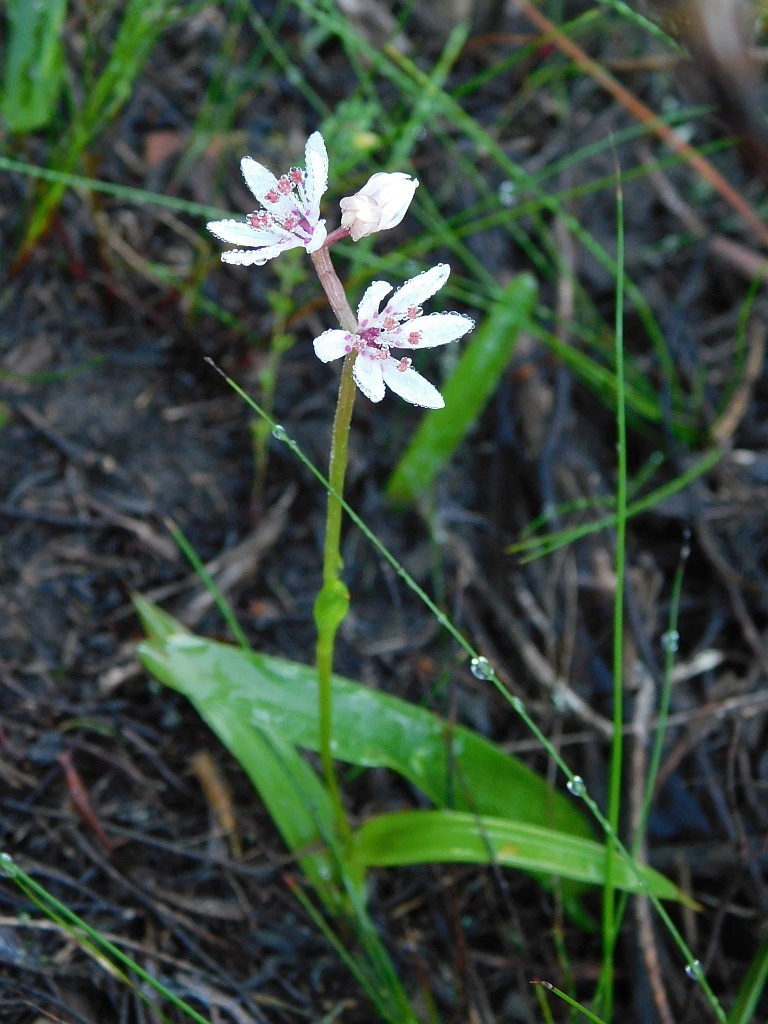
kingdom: Plantae
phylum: Tracheophyta
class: Liliopsida
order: Liliales
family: Colchicaceae
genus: Wurmbea
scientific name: Wurmbea punctata
